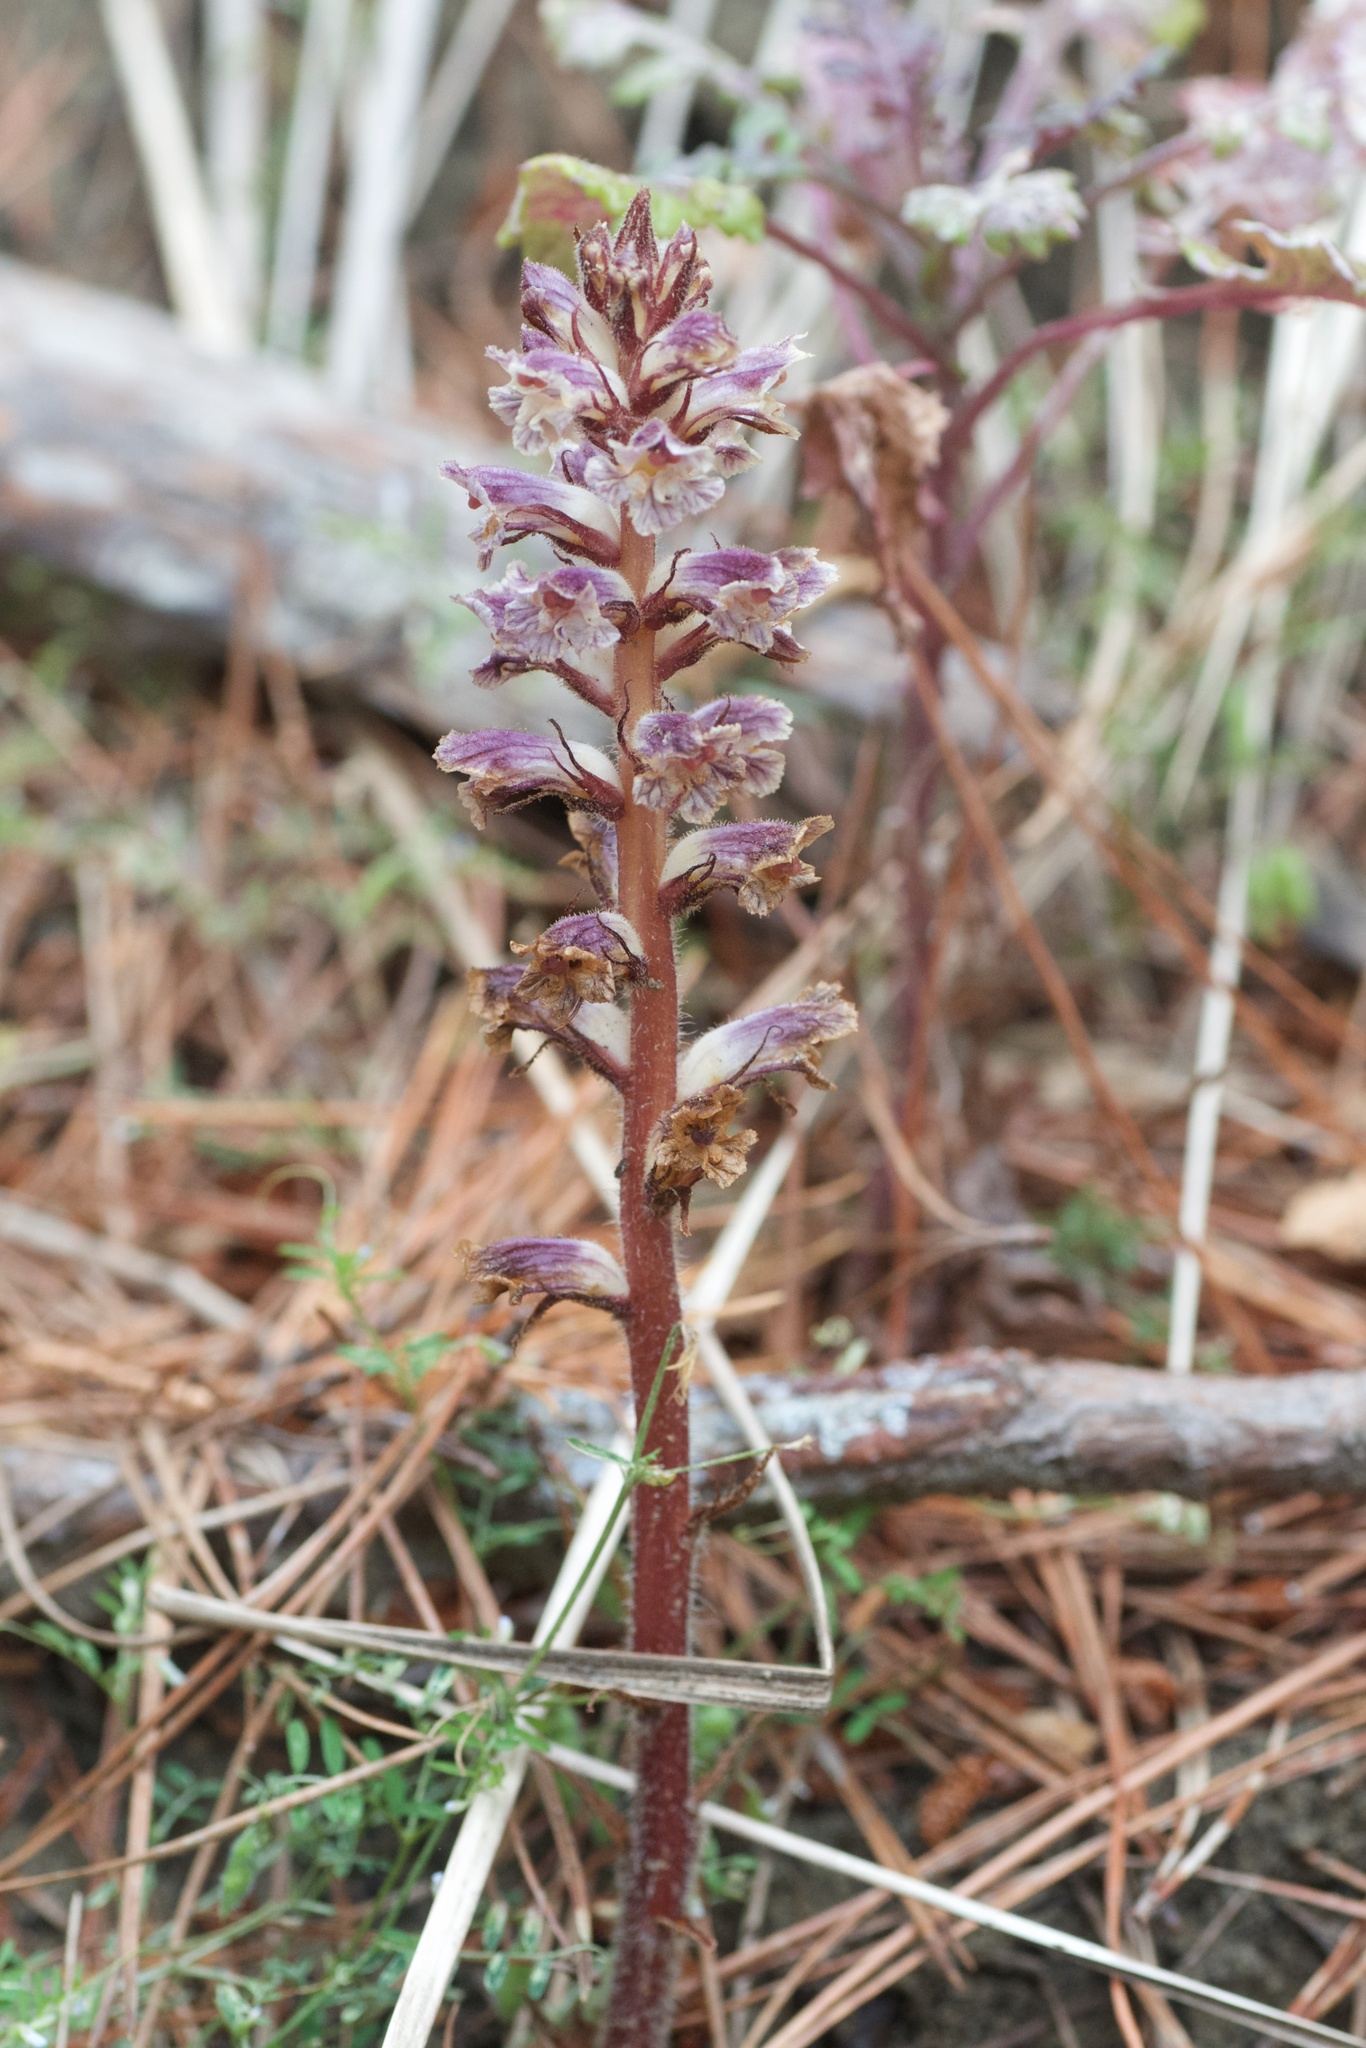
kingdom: Plantae
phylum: Tracheophyta
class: Magnoliopsida
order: Lamiales
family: Orobanchaceae
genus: Orobanche
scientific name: Orobanche minor
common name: Common broomrape
